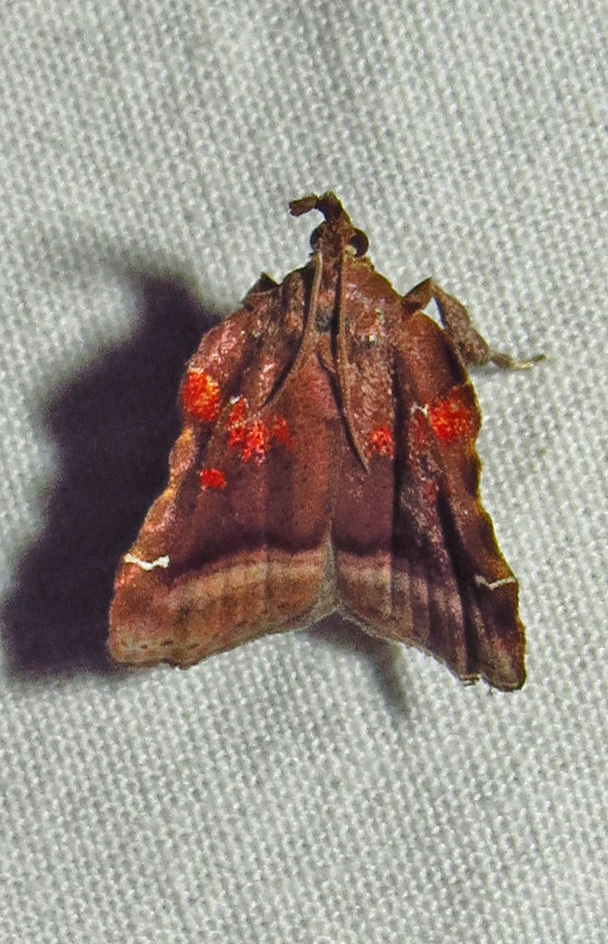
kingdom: Animalia
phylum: Arthropoda
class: Insecta
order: Lepidoptera
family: Pyralidae
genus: Clydonopteron
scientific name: Clydonopteron sacculana
